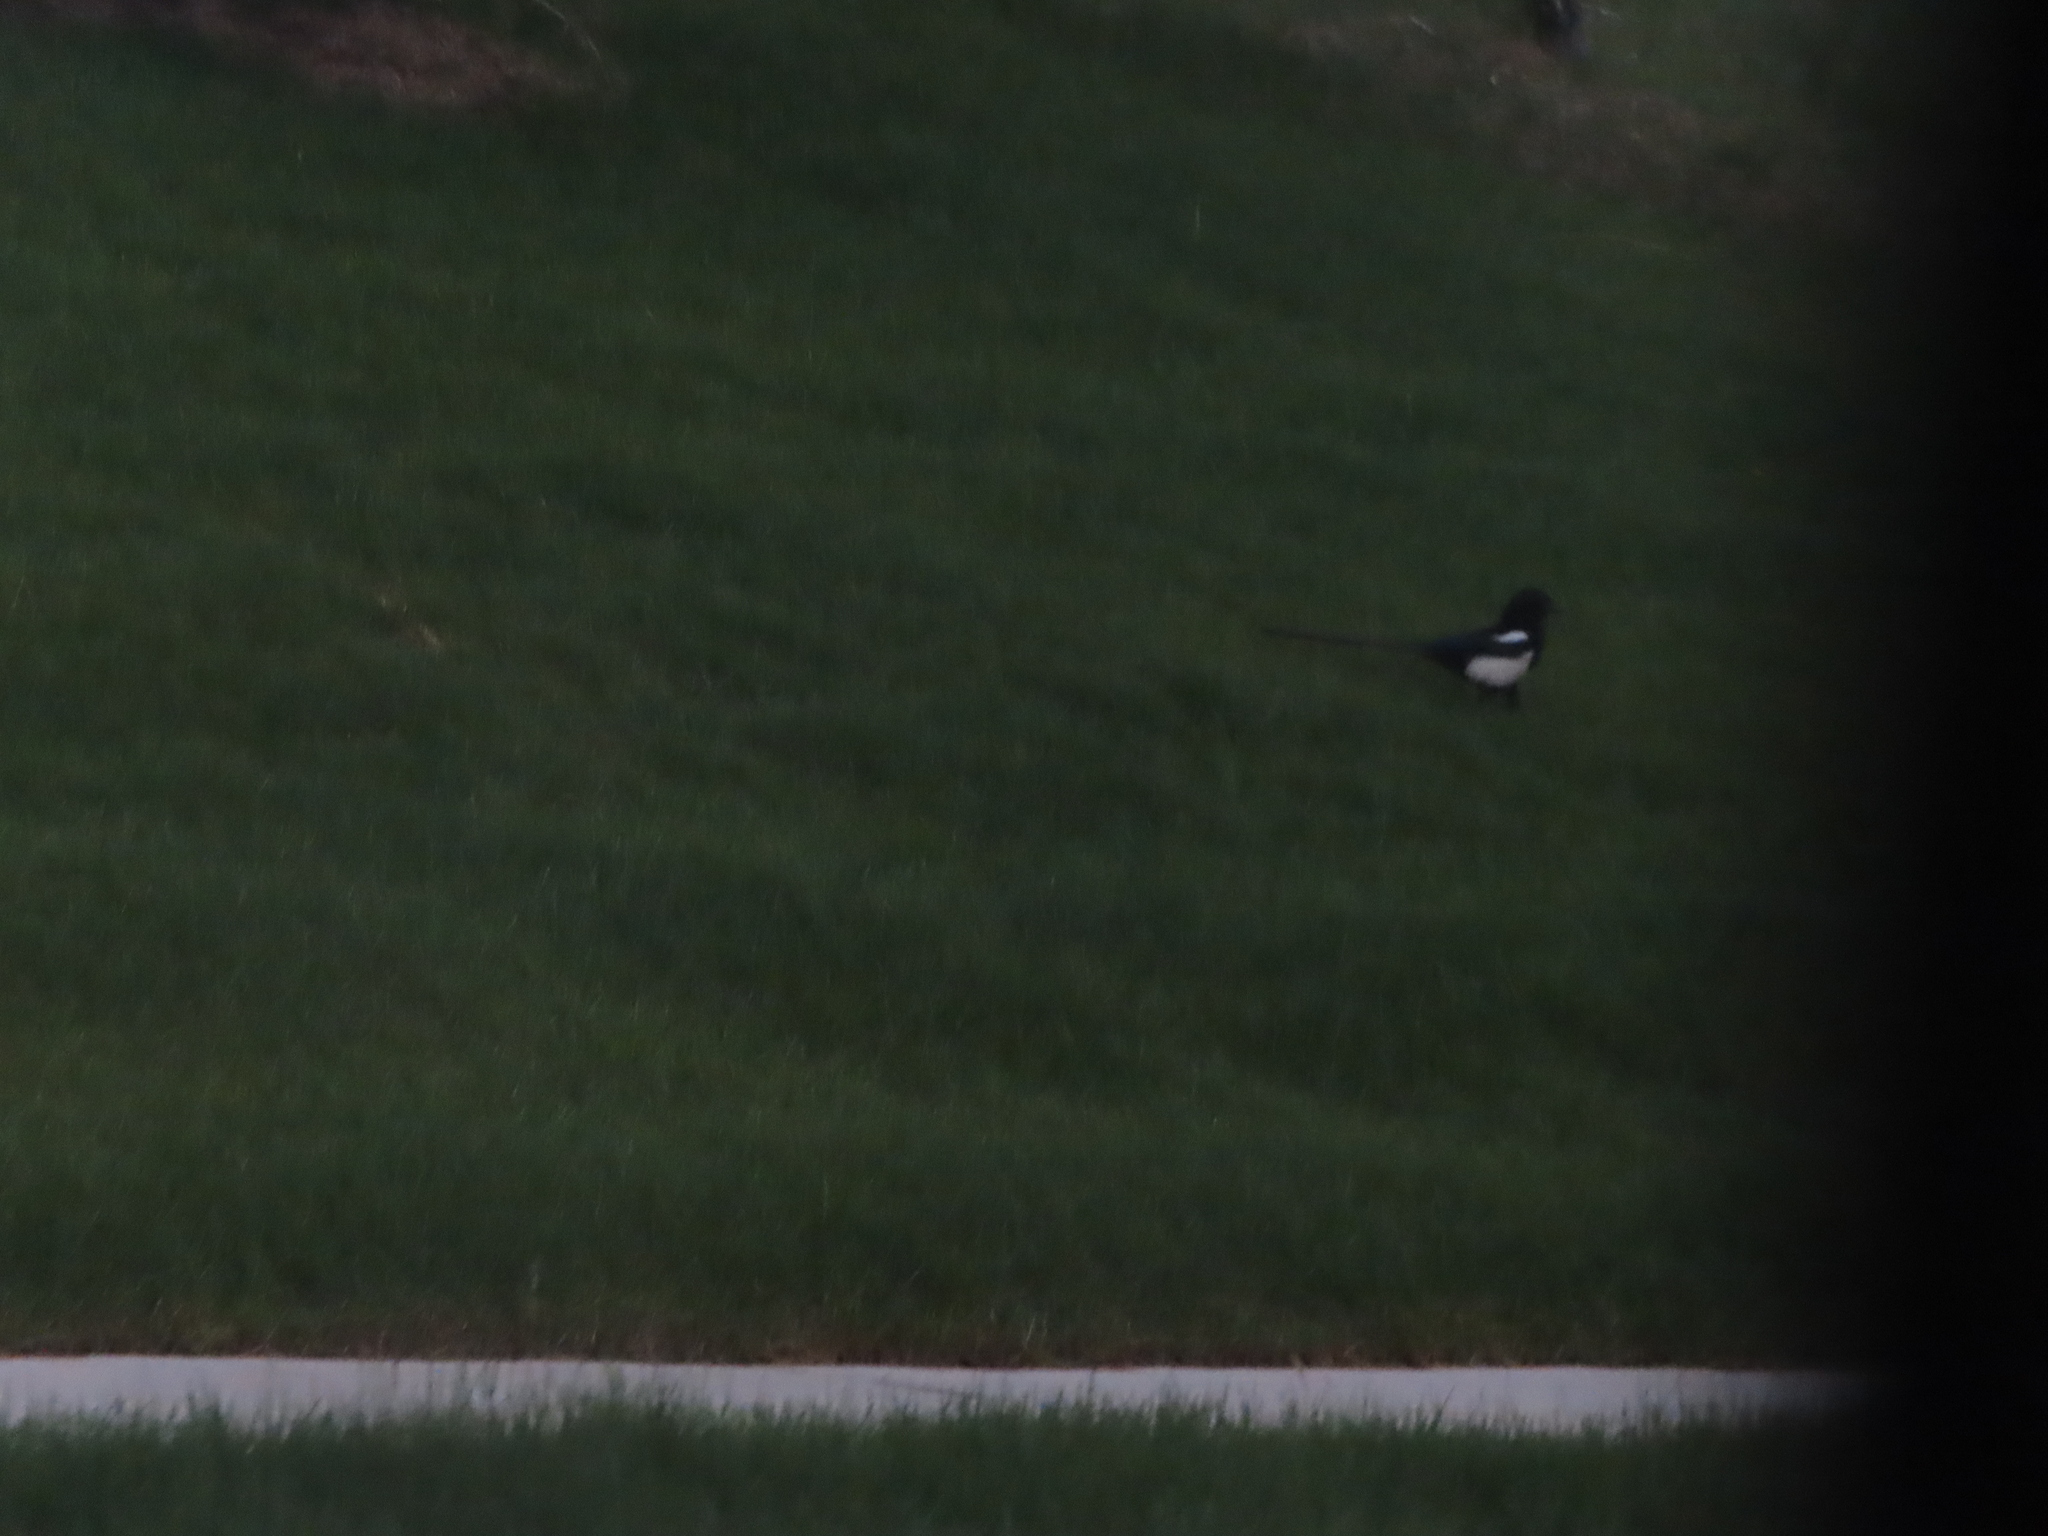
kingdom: Animalia
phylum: Chordata
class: Aves
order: Passeriformes
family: Corvidae
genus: Pica
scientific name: Pica hudsonia
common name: Black-billed magpie
